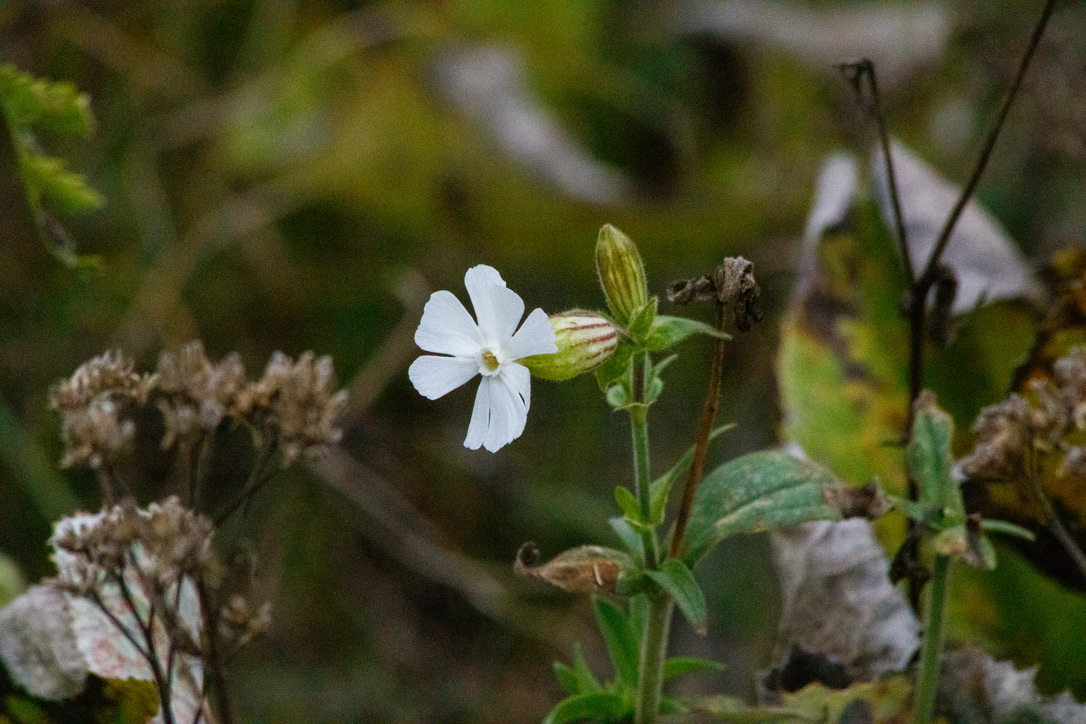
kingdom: Plantae
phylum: Tracheophyta
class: Magnoliopsida
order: Caryophyllales
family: Caryophyllaceae
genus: Silene
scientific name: Silene latifolia
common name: White campion
